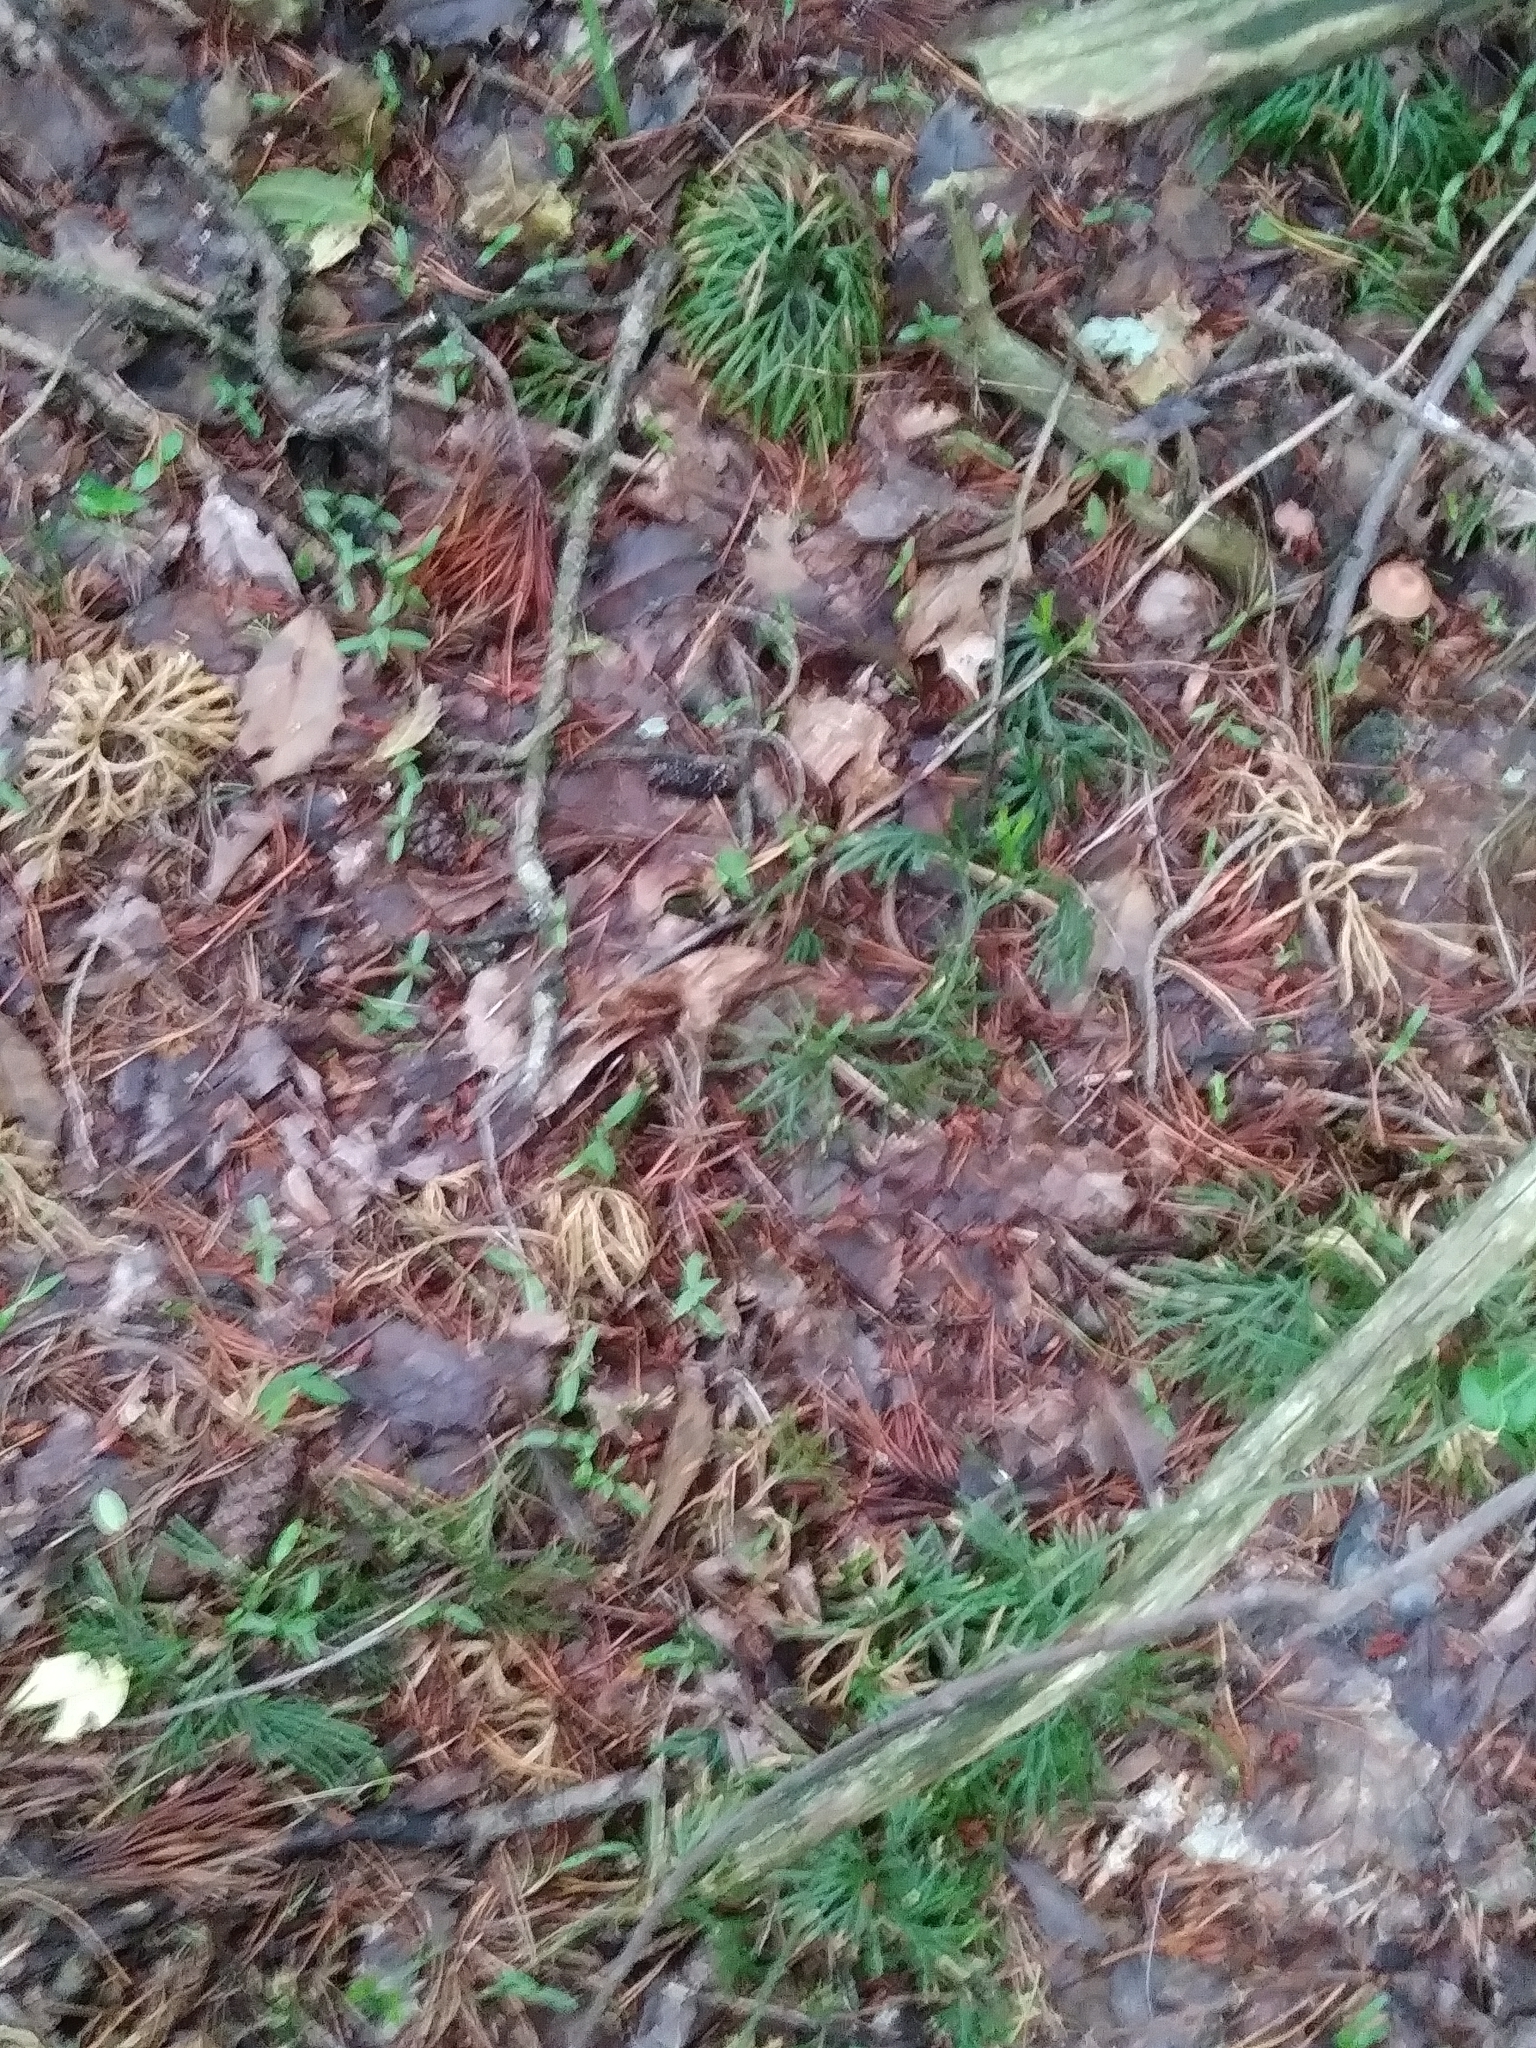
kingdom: Plantae
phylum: Tracheophyta
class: Lycopodiopsida
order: Lycopodiales
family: Lycopodiaceae
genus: Diphasiastrum
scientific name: Diphasiastrum digitatum
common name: Southern running-pine
